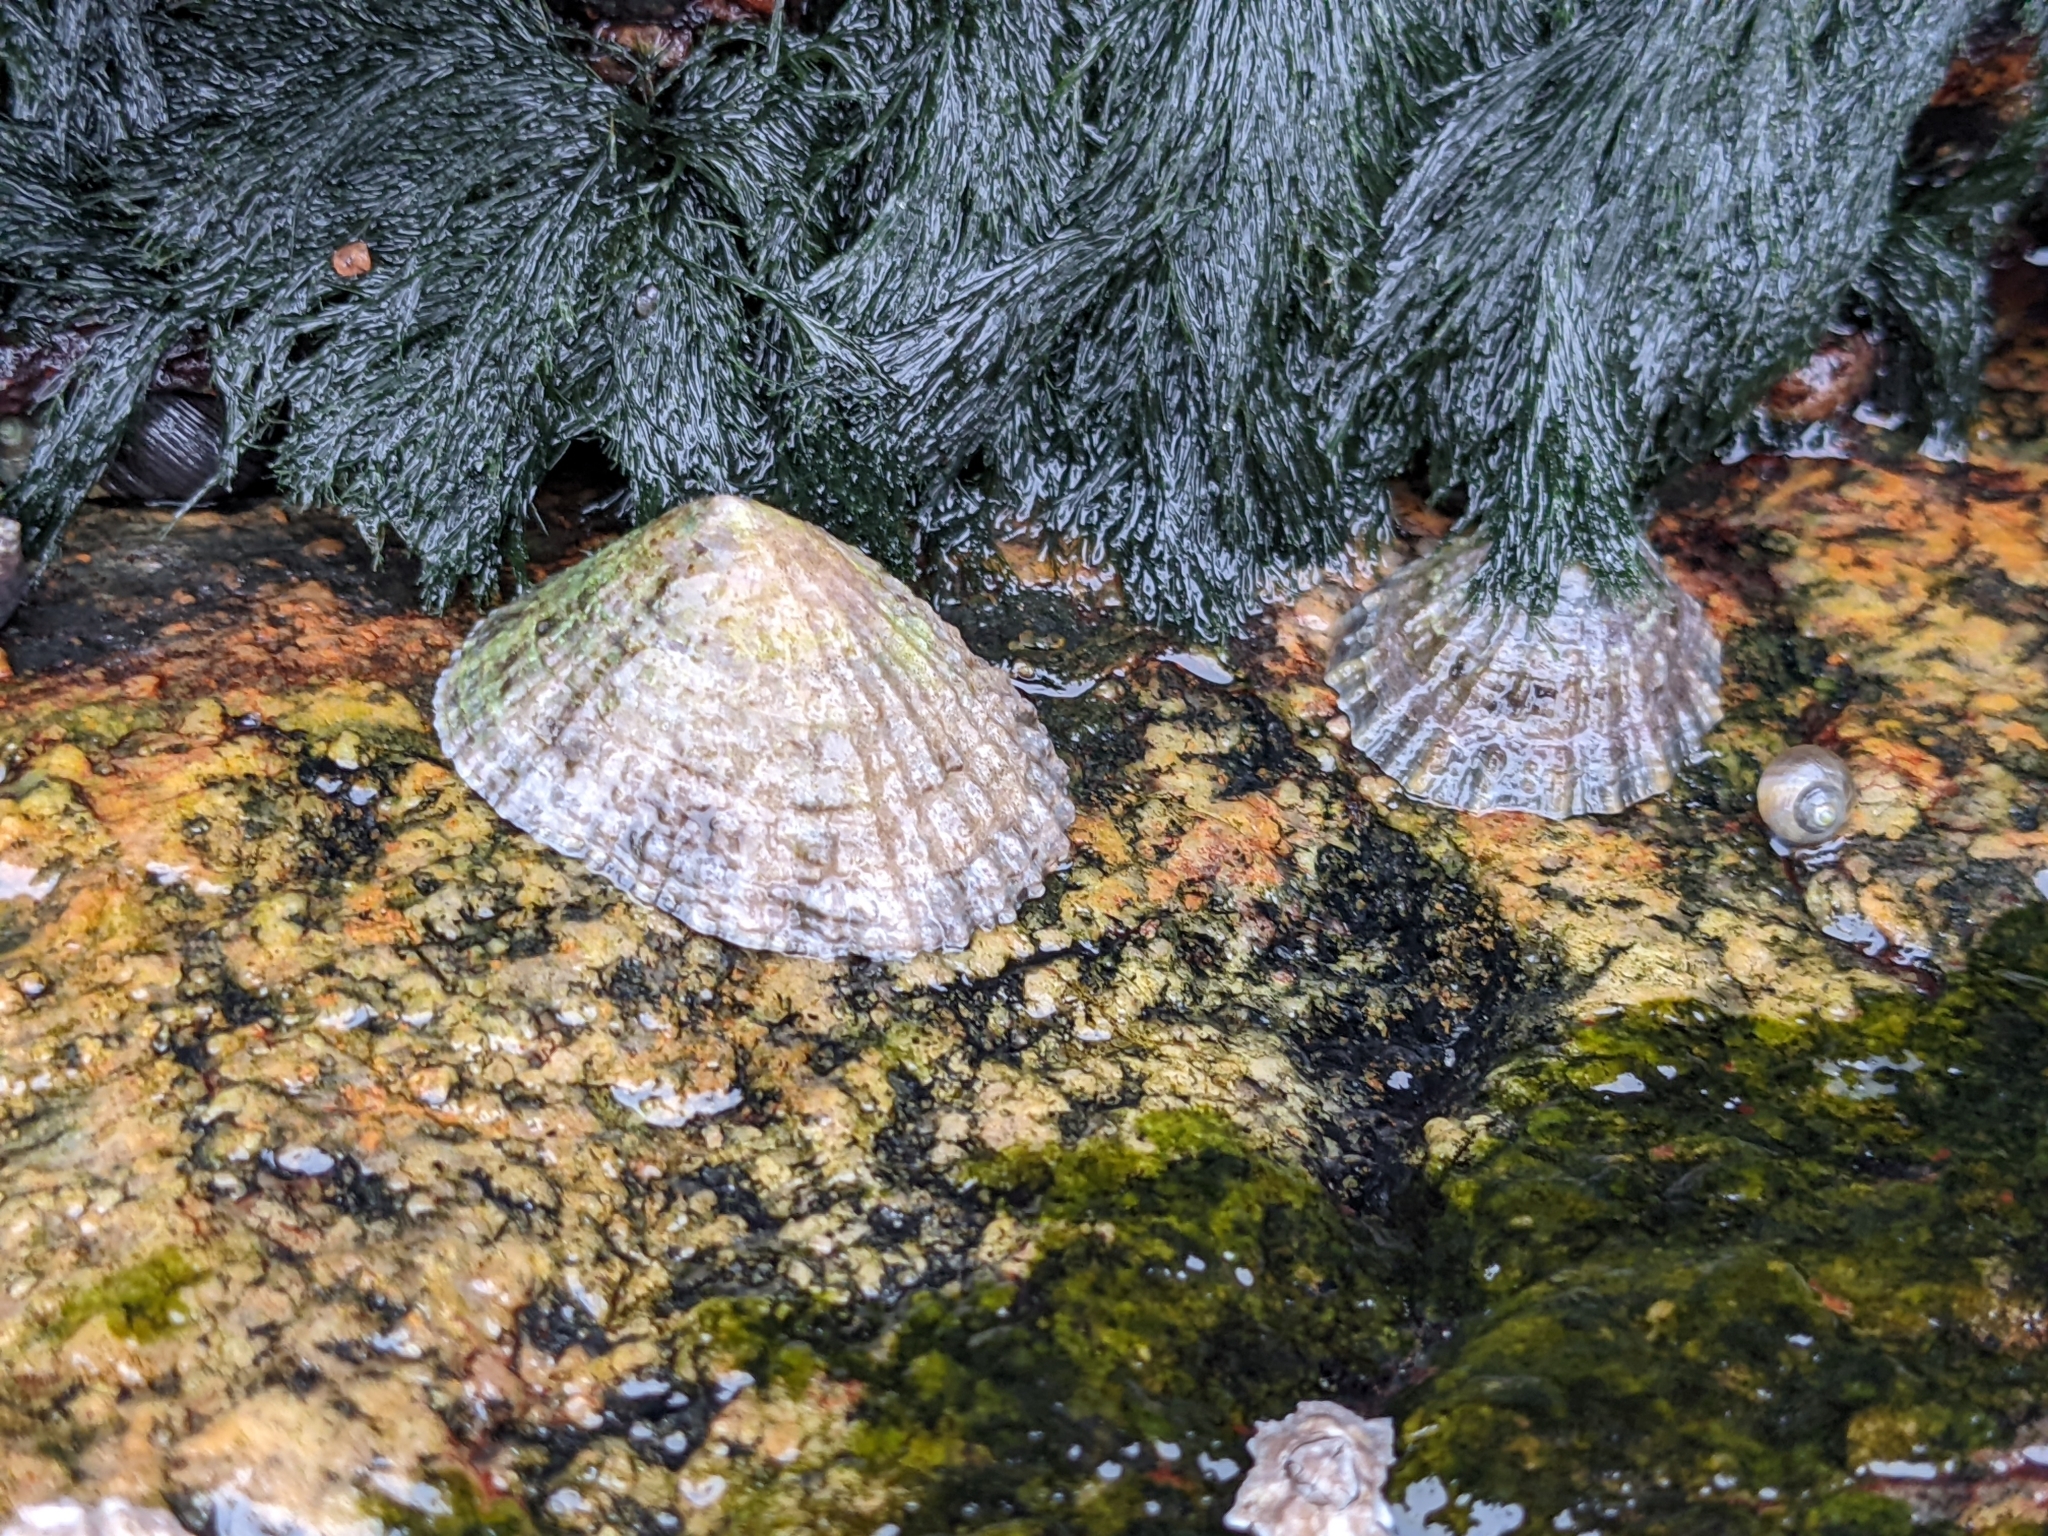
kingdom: Animalia
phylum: Mollusca
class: Gastropoda
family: Patellidae
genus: Patella
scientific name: Patella vulgata
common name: Common limpet
